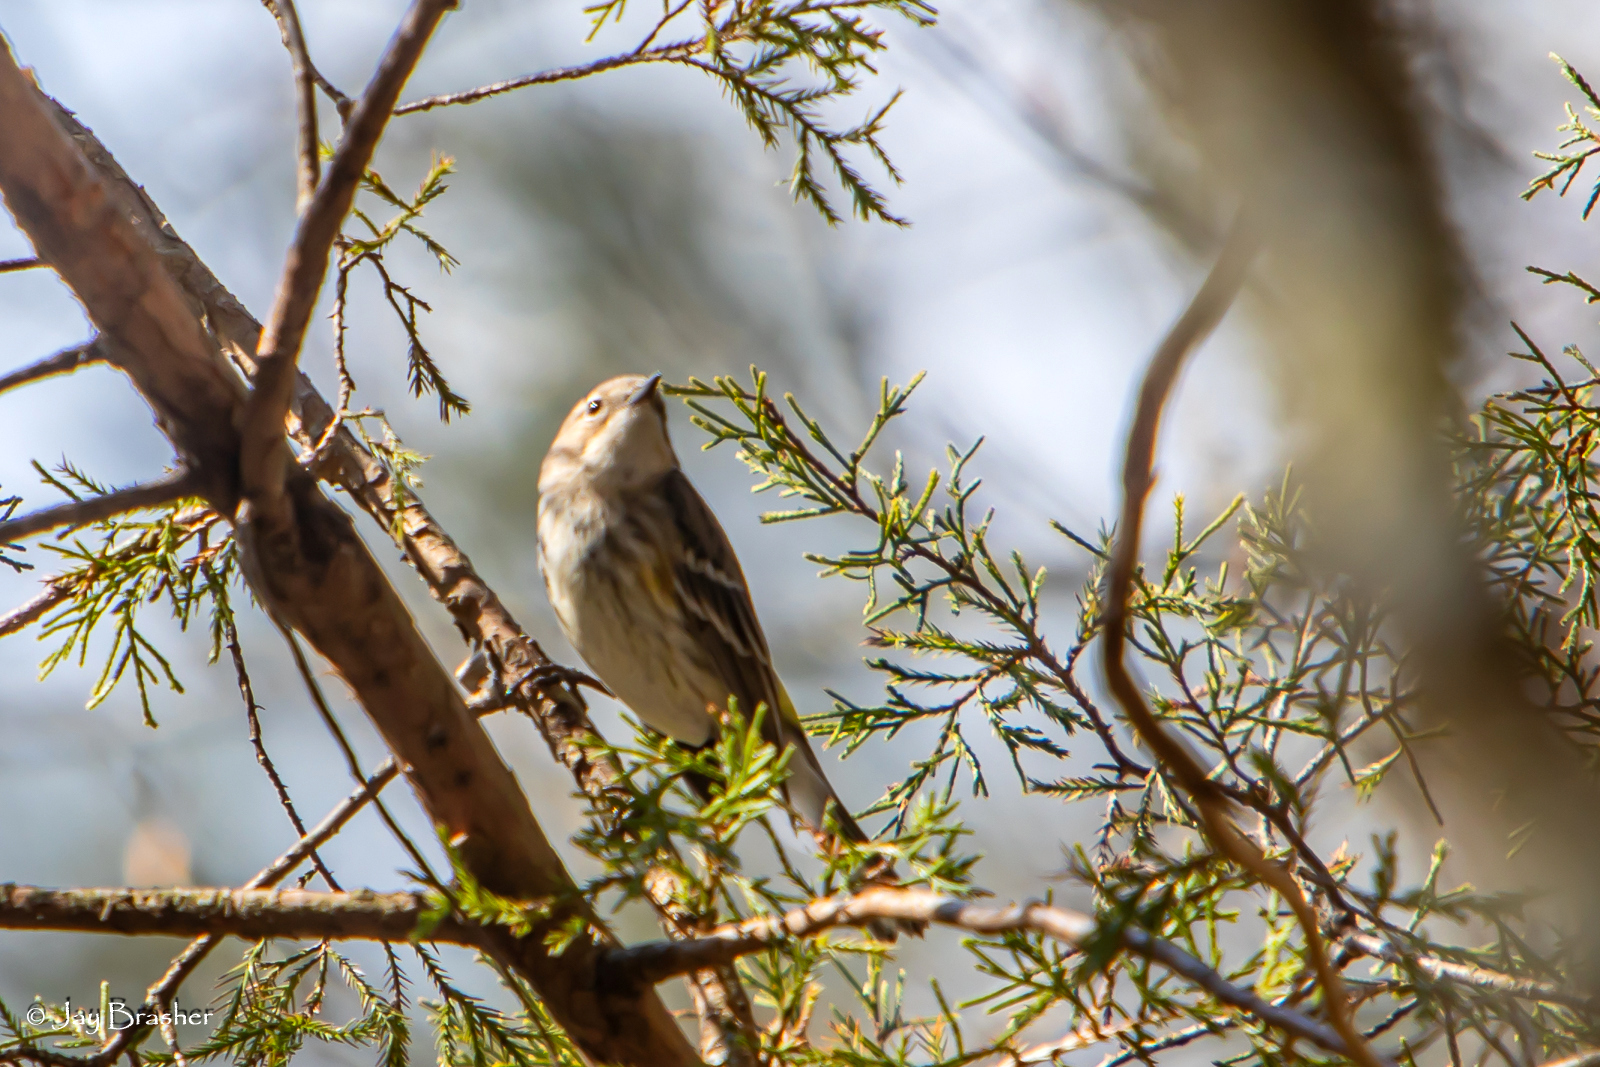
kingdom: Animalia
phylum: Chordata
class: Aves
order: Passeriformes
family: Parulidae
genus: Setophaga
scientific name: Setophaga coronata
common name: Myrtle warbler
